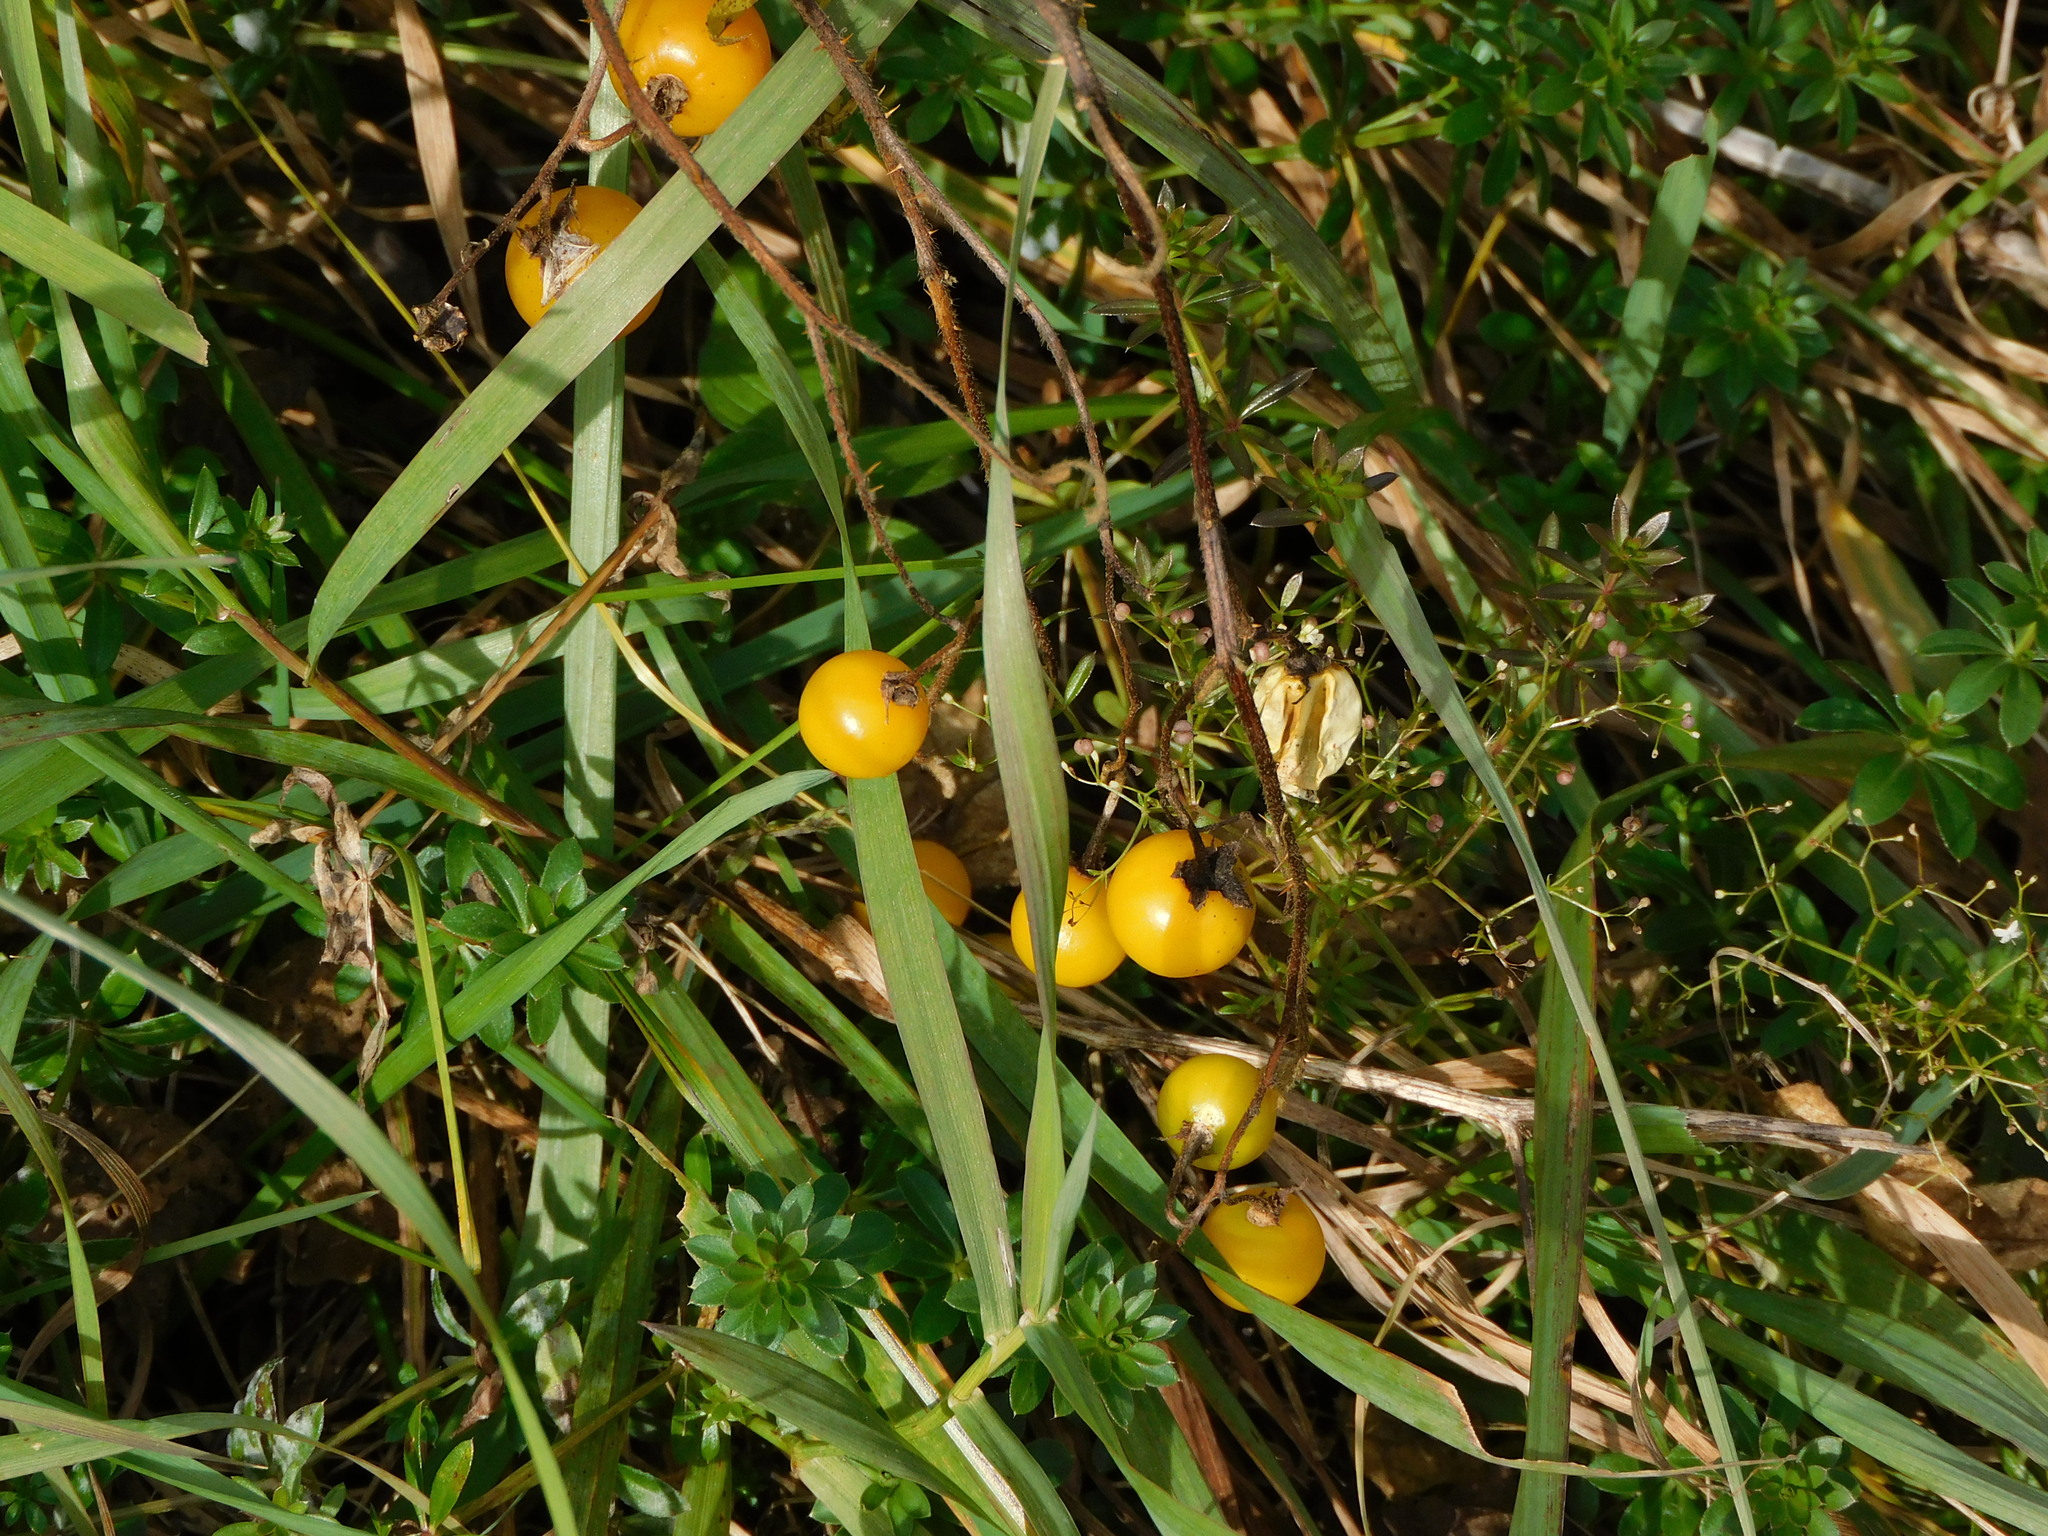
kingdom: Plantae
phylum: Tracheophyta
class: Magnoliopsida
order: Solanales
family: Solanaceae
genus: Solanum
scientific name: Solanum carolinense
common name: Horse-nettle
